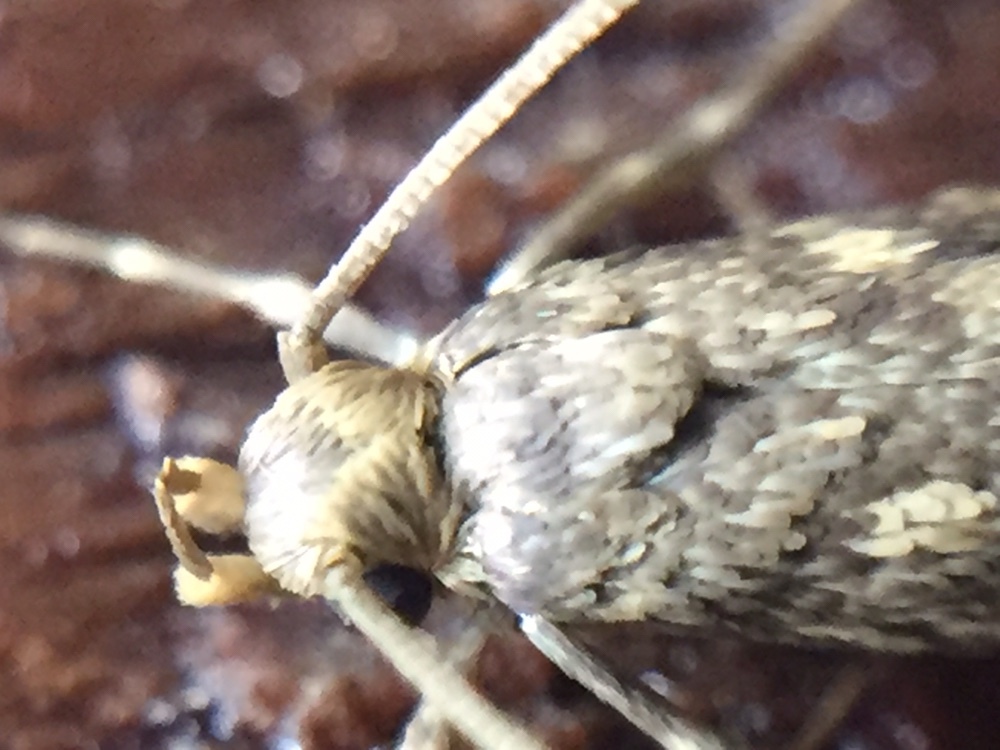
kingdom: Animalia
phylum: Arthropoda
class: Insecta
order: Lepidoptera
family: Tineidae
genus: Lindera
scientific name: Lindera tessellatella
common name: Moth
